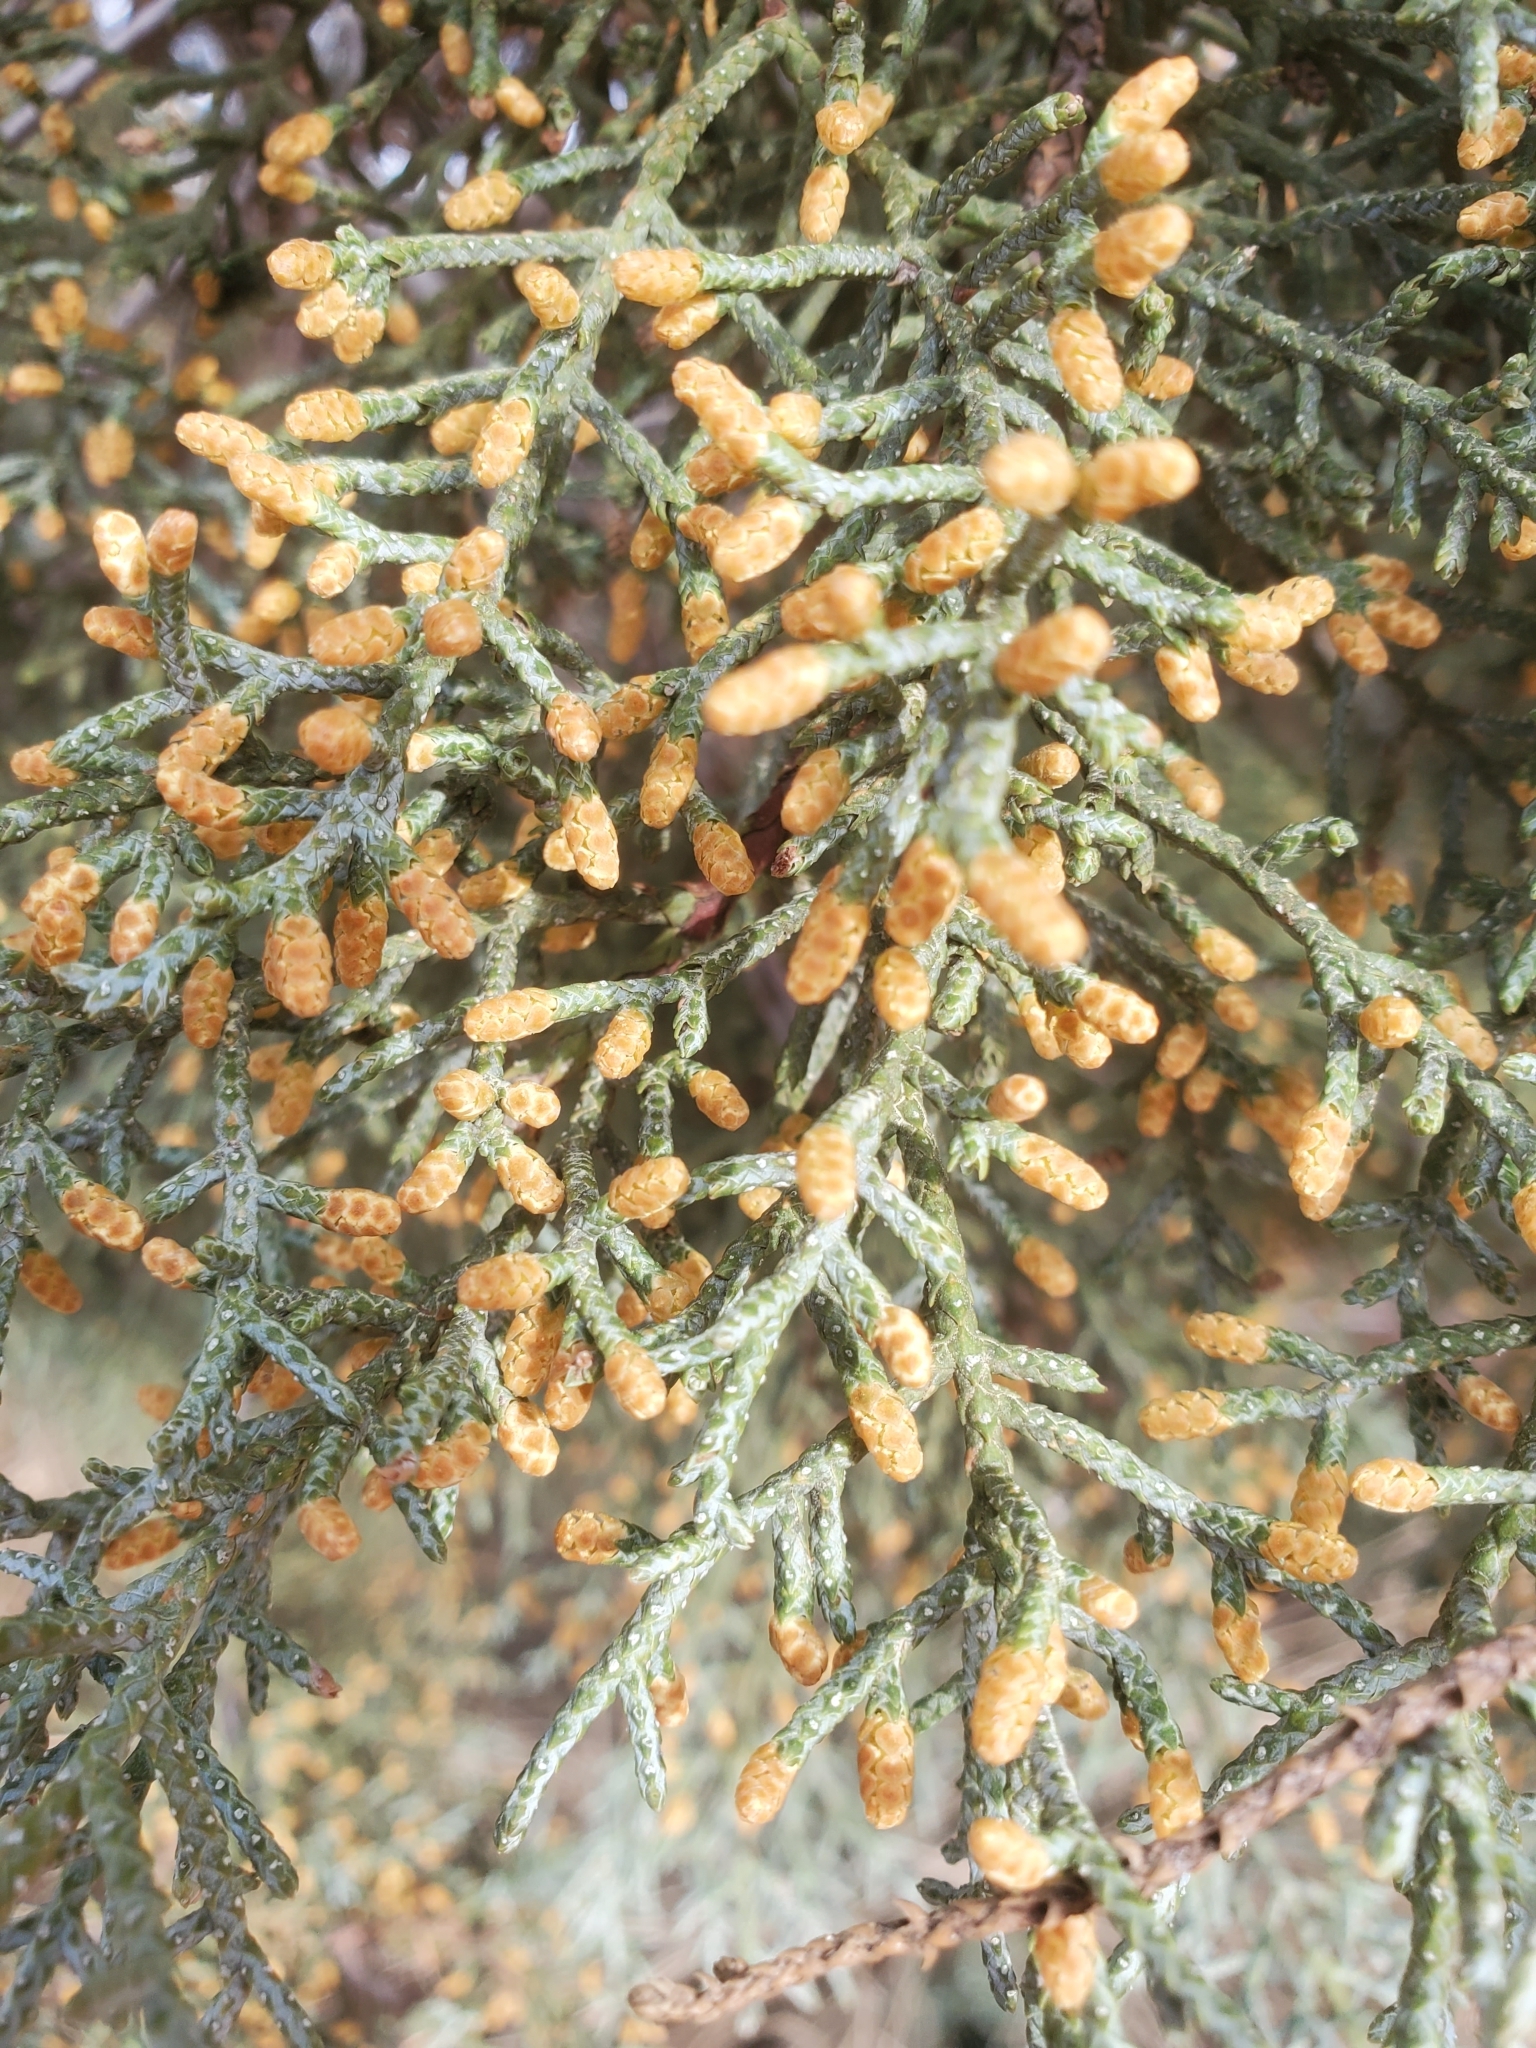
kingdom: Plantae
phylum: Tracheophyta
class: Pinopsida
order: Pinales
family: Cupressaceae
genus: Cupressus
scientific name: Cupressus arizonica
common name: Arizona cypress
